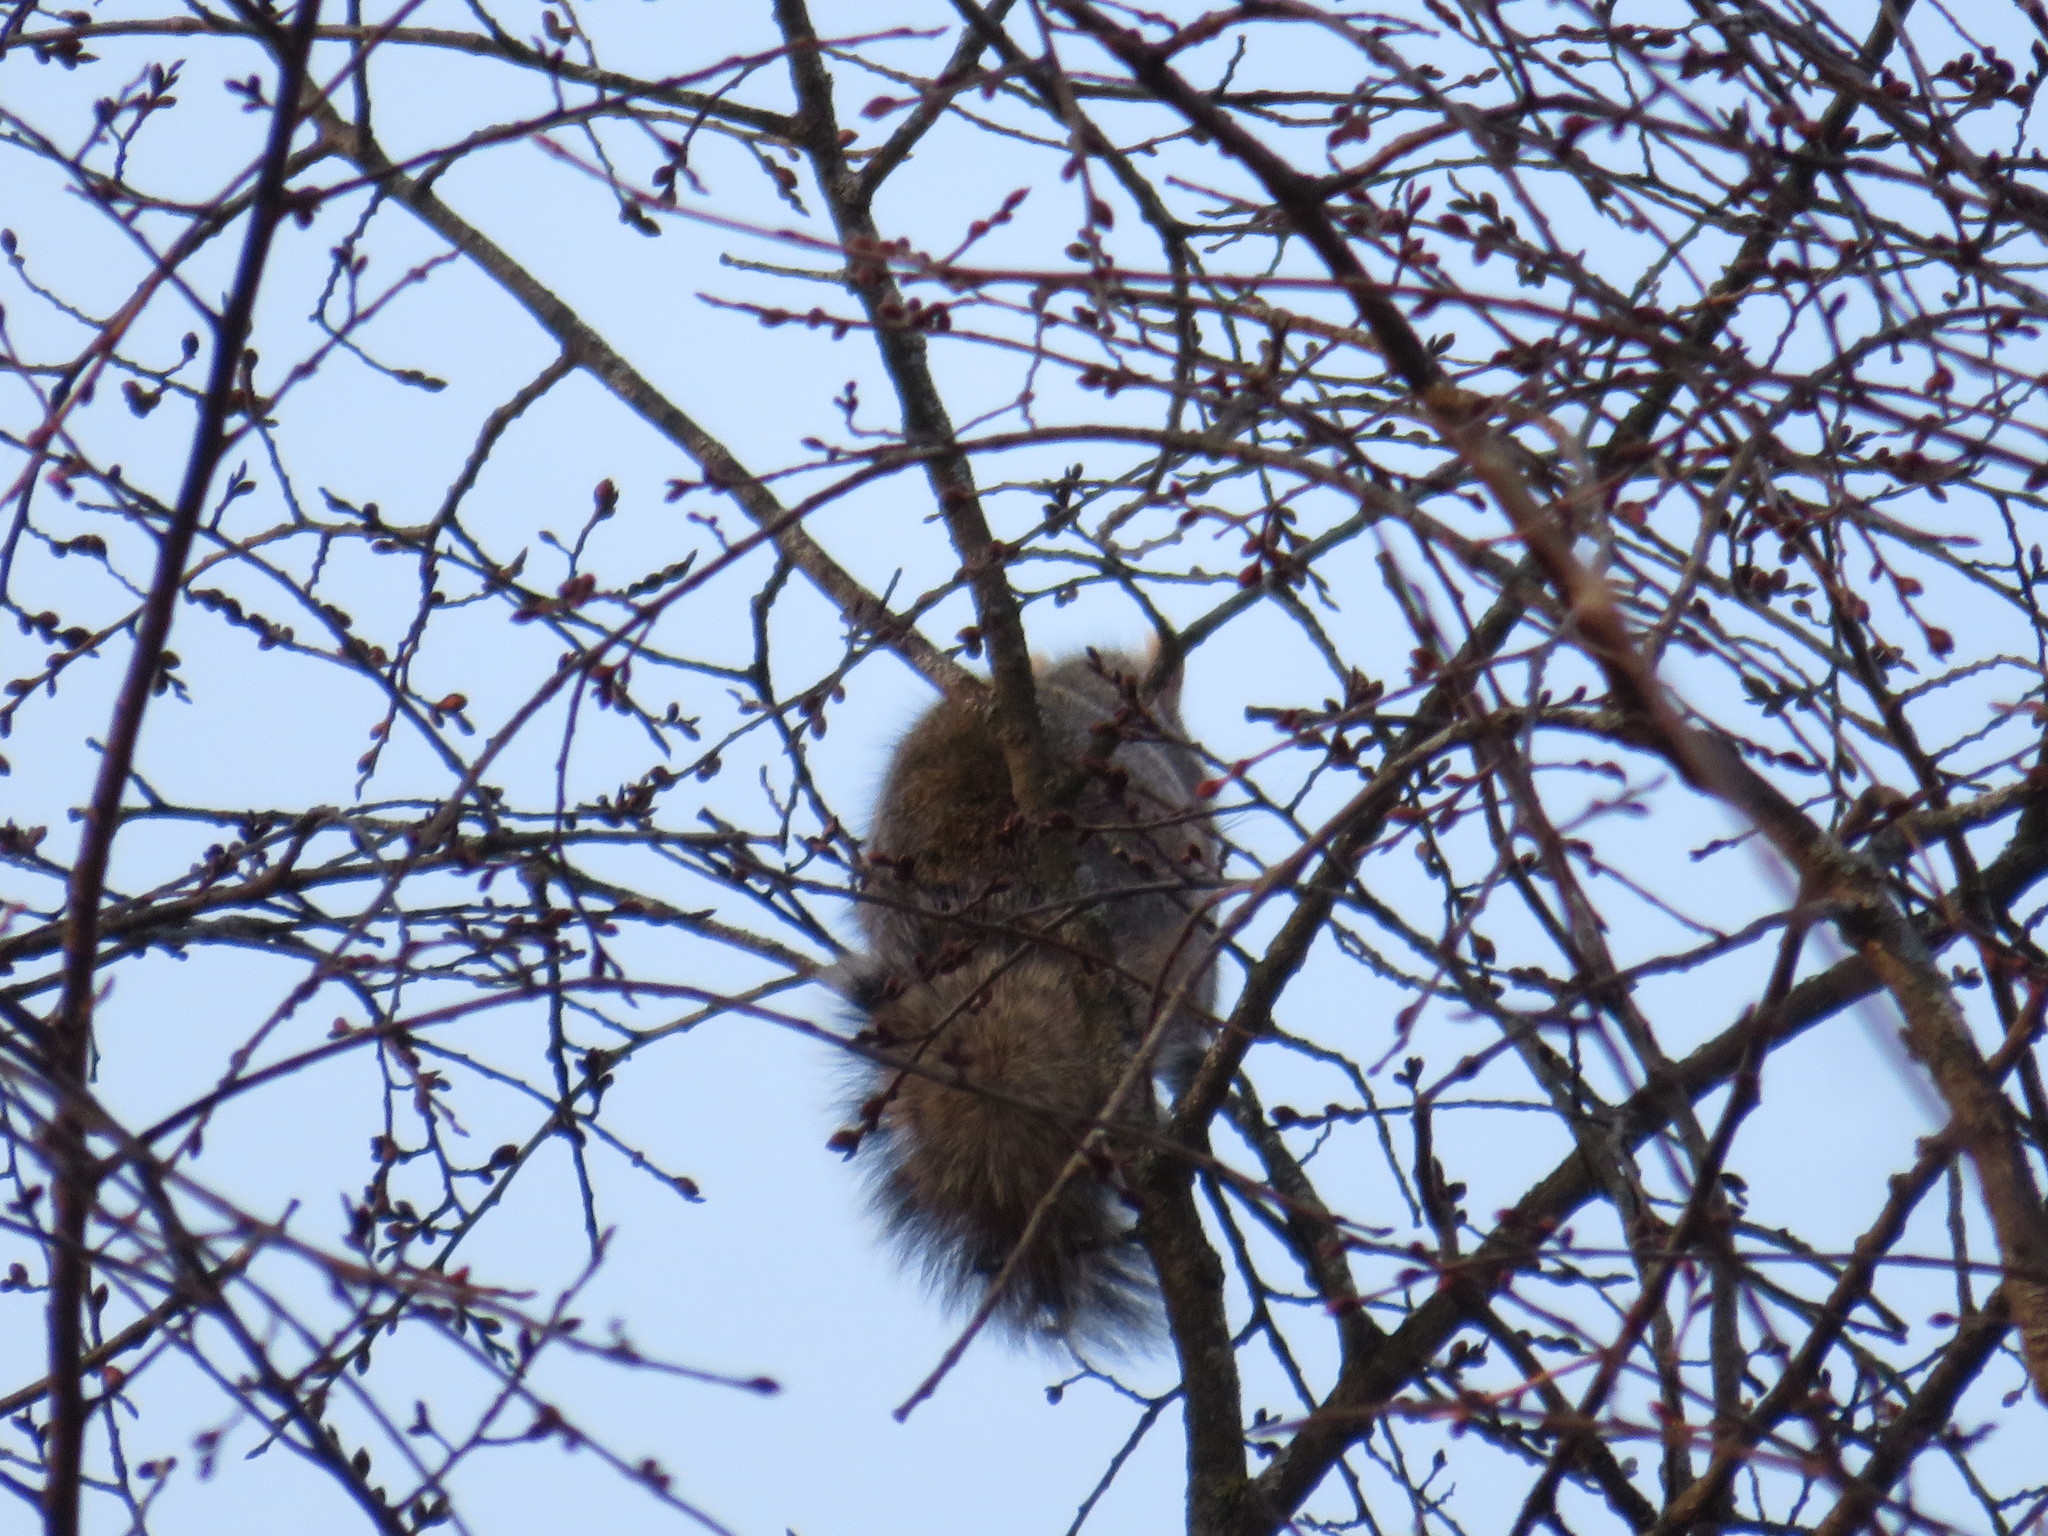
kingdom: Animalia
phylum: Chordata
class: Mammalia
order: Rodentia
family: Sciuridae
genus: Sciurus
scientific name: Sciurus carolinensis
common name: Eastern gray squirrel
